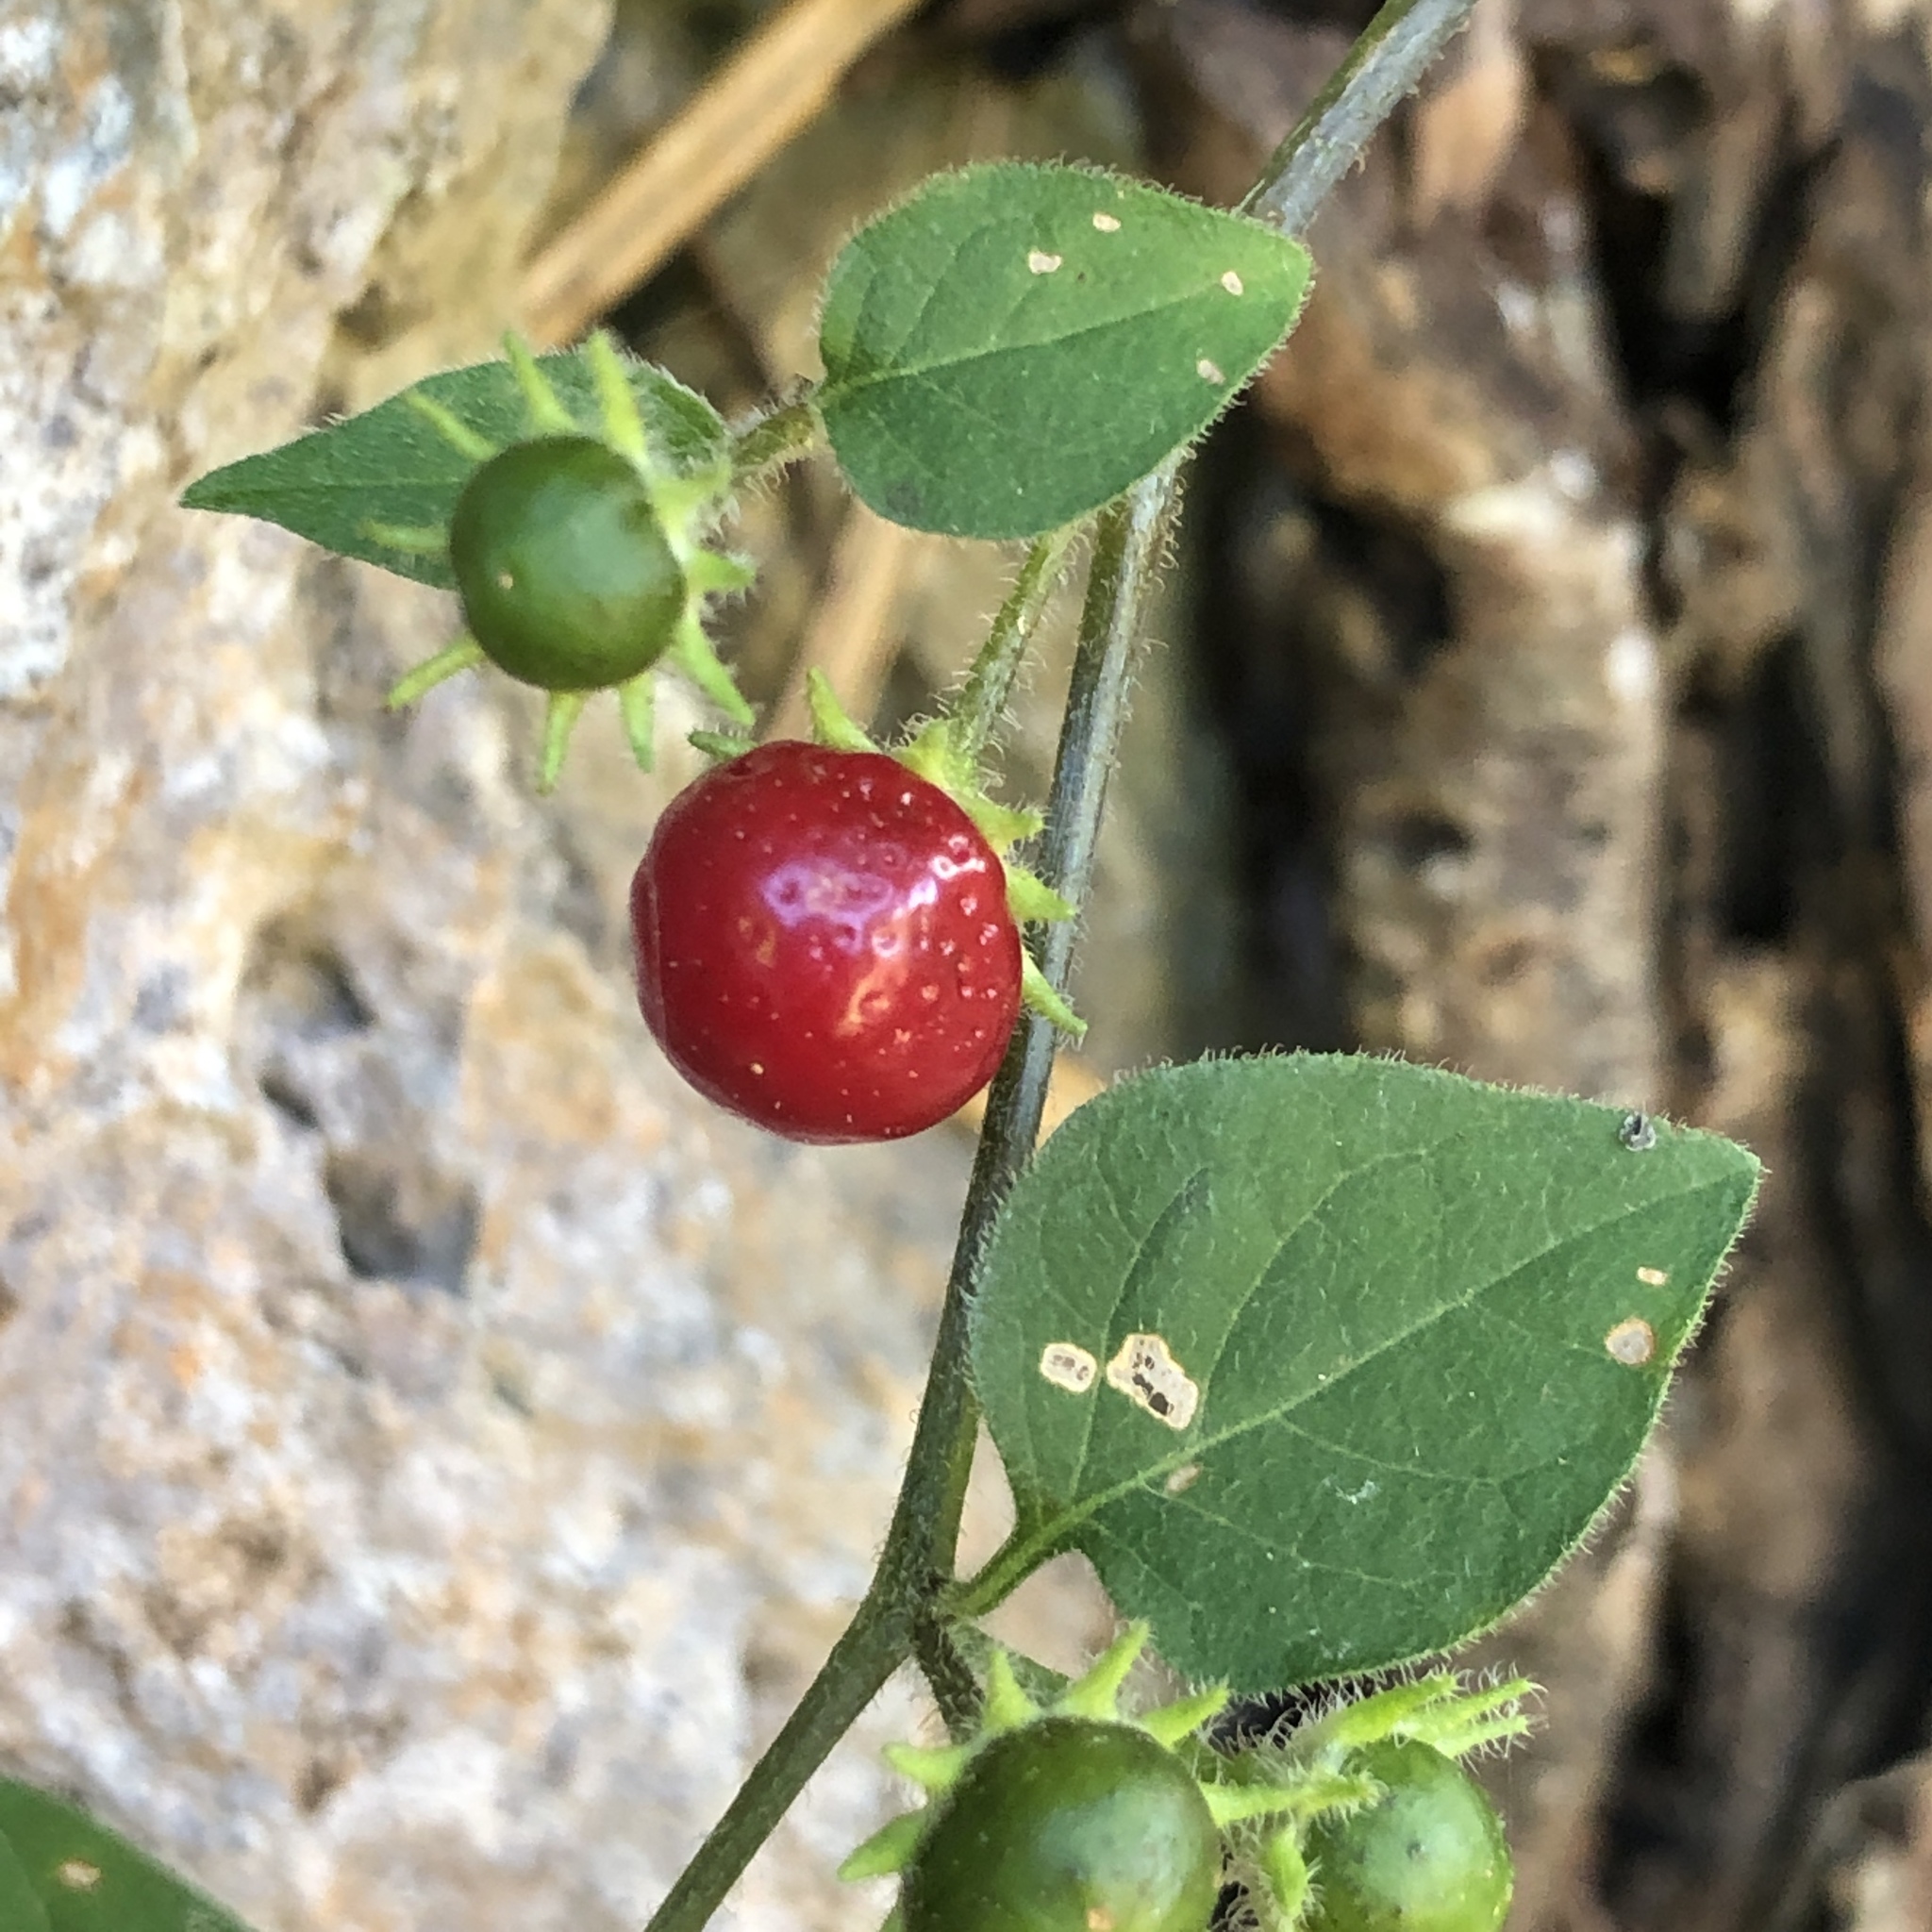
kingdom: Plantae
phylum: Tracheophyta
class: Magnoliopsida
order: Solanales
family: Solanaceae
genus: Lycianthes
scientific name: Lycianthes biflora
